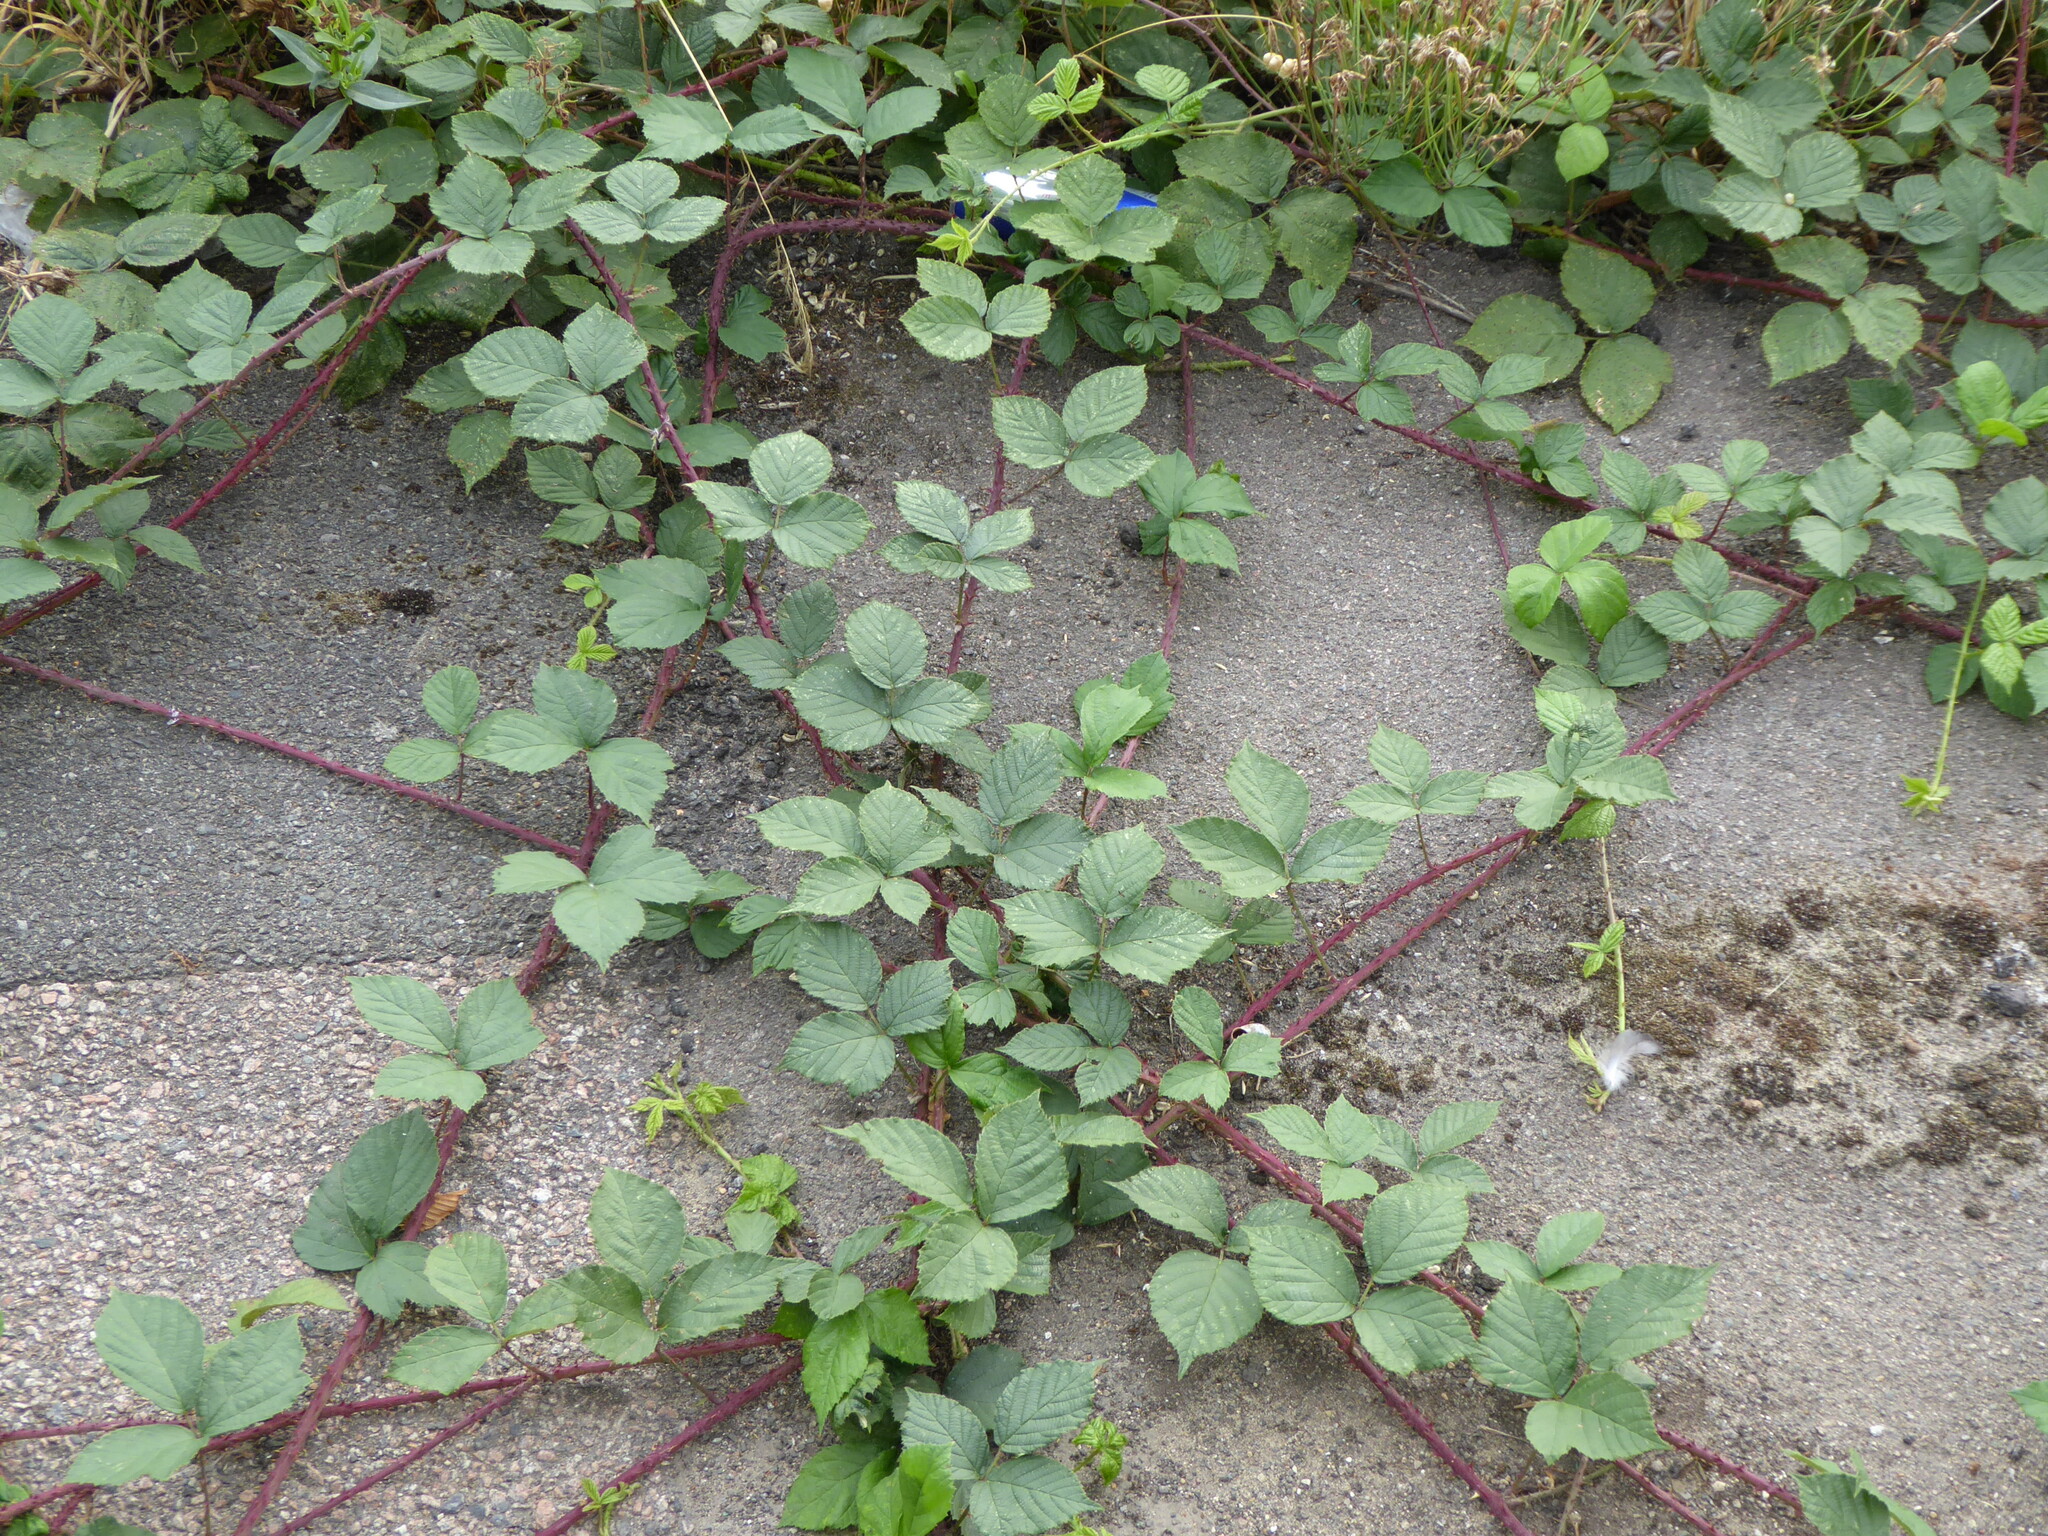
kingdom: Plantae
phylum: Tracheophyta
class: Magnoliopsida
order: Rosales
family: Rosaceae
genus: Rubus
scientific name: Rubus
